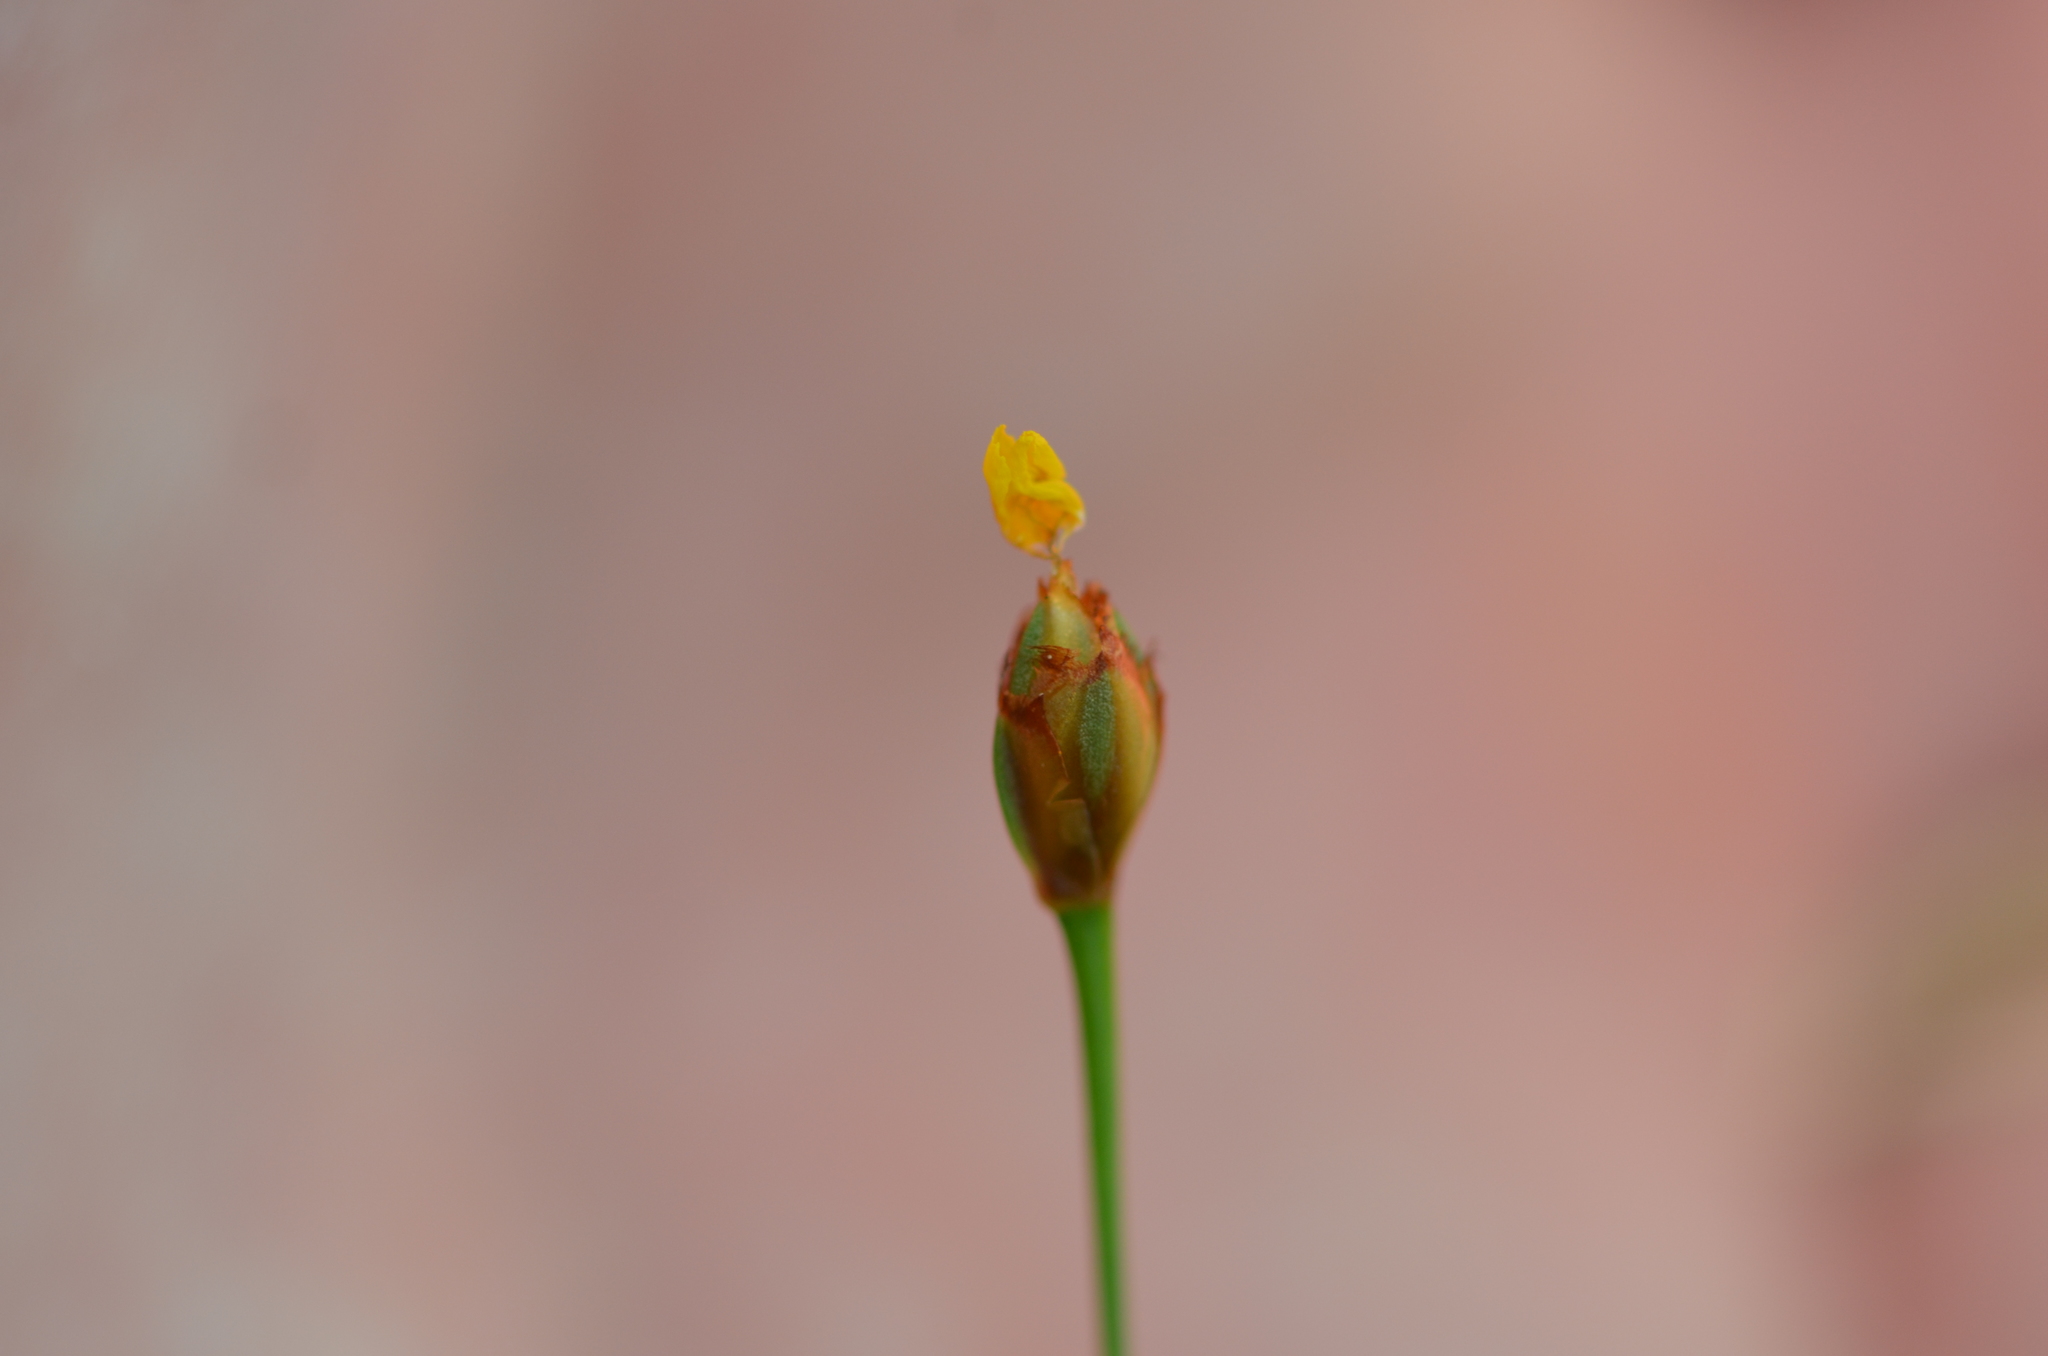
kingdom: Plantae
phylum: Tracheophyta
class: Liliopsida
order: Poales
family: Xyridaceae
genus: Xyris
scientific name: Xyris brevifolia
